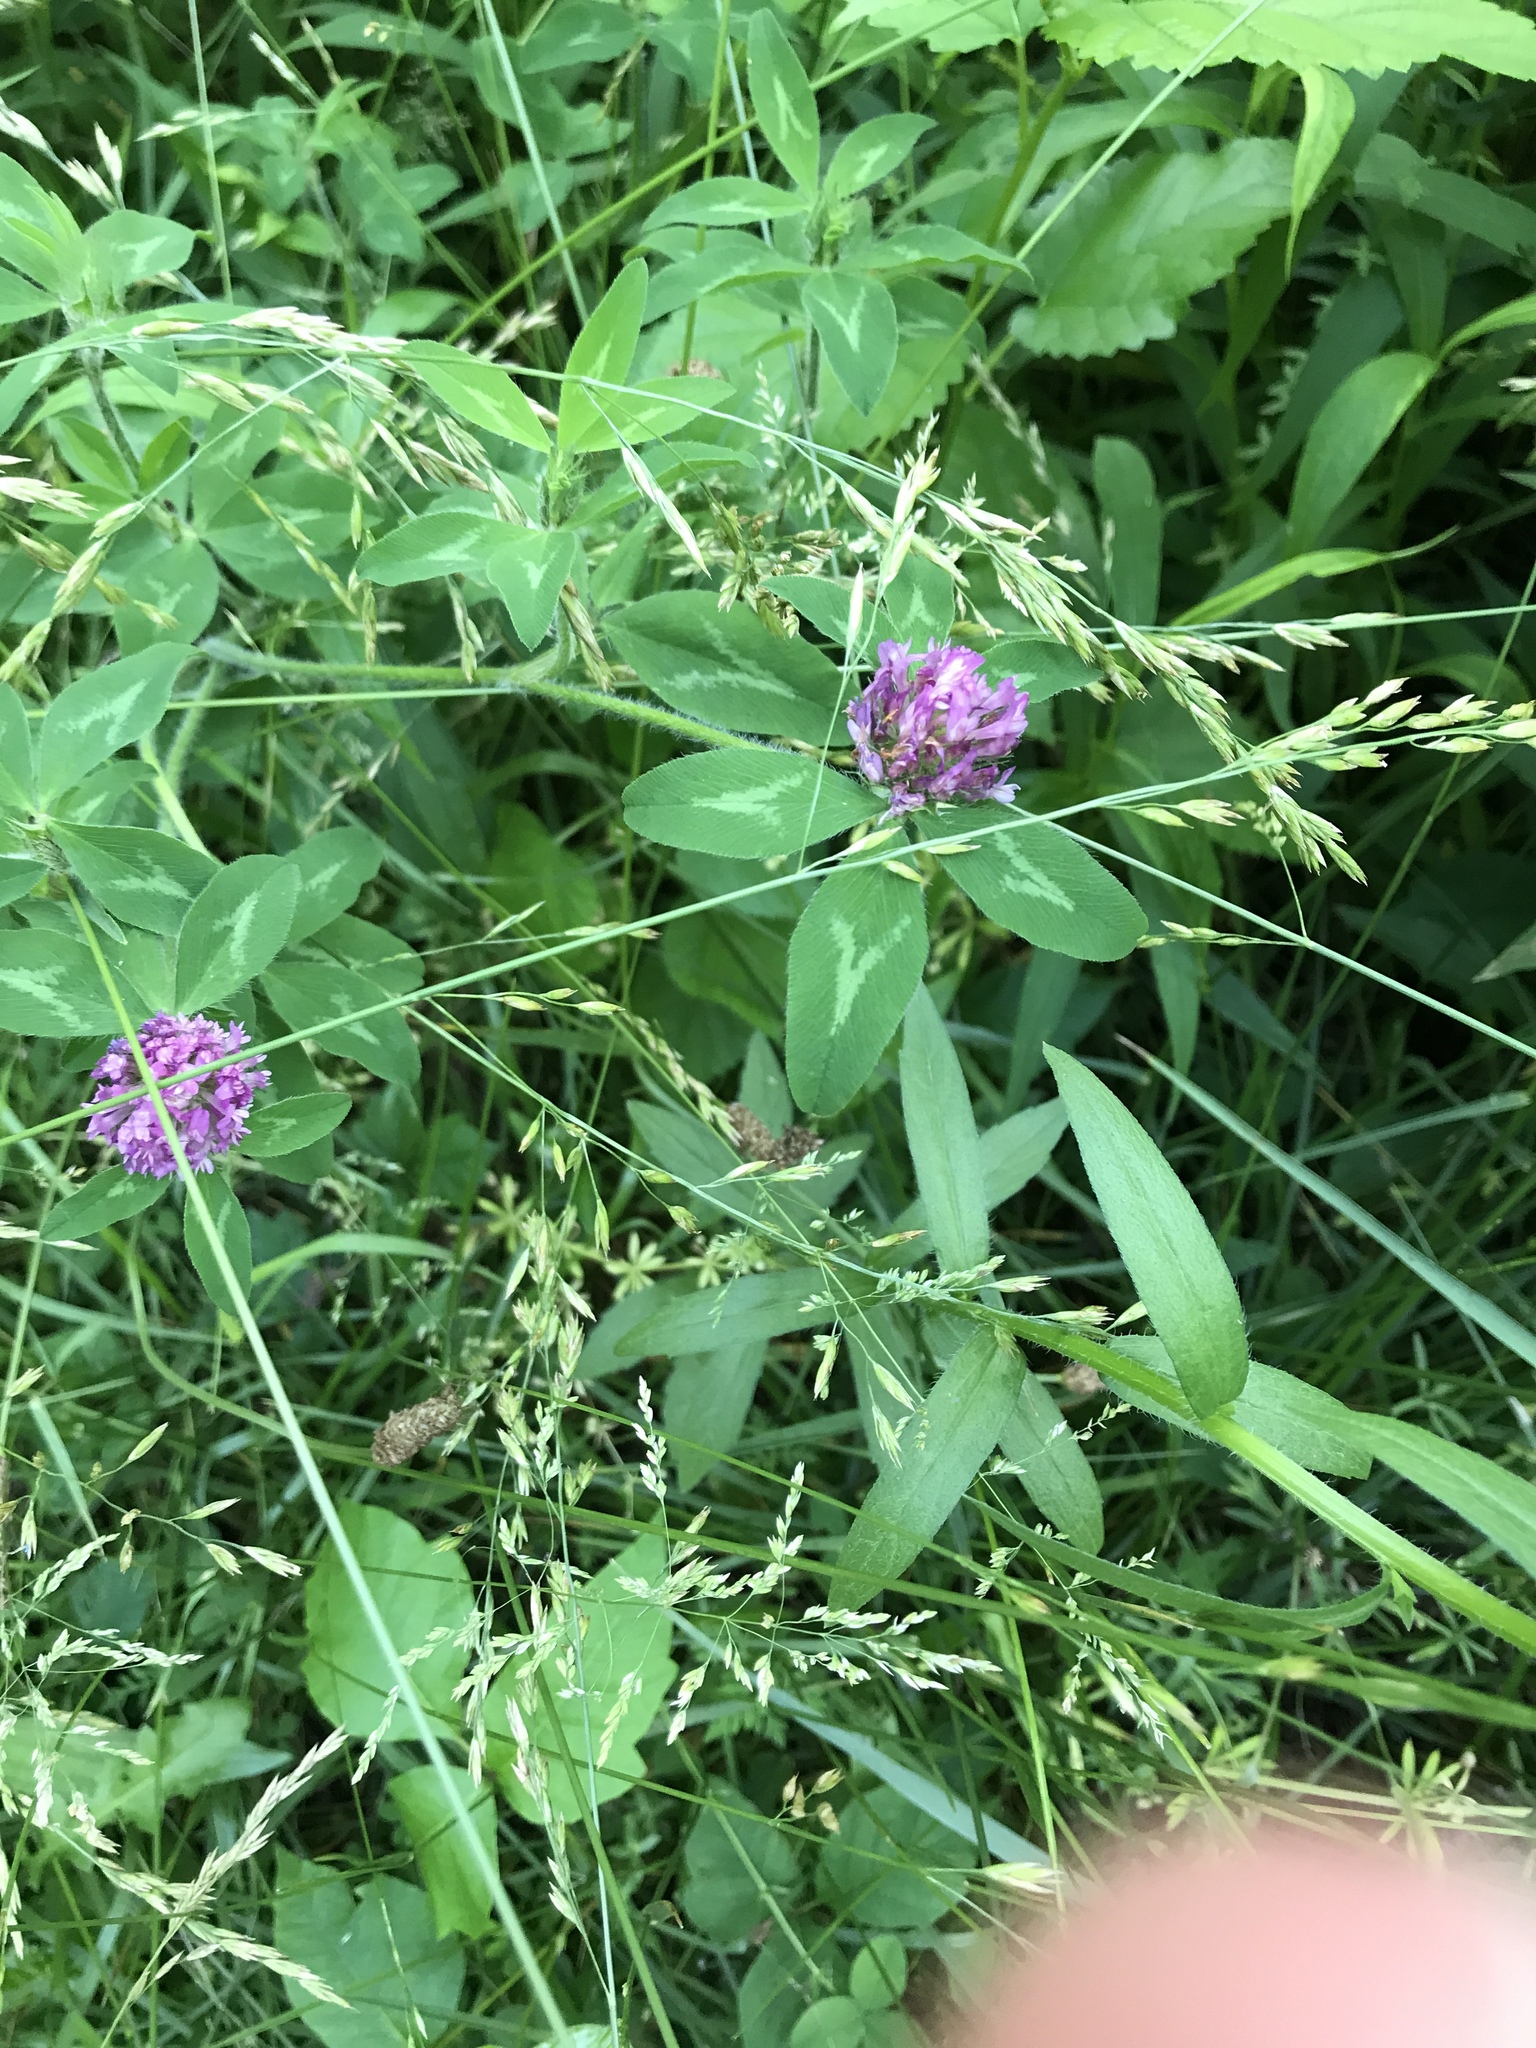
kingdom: Plantae
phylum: Tracheophyta
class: Magnoliopsida
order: Fabales
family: Fabaceae
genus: Trifolium
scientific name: Trifolium pratense
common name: Red clover
